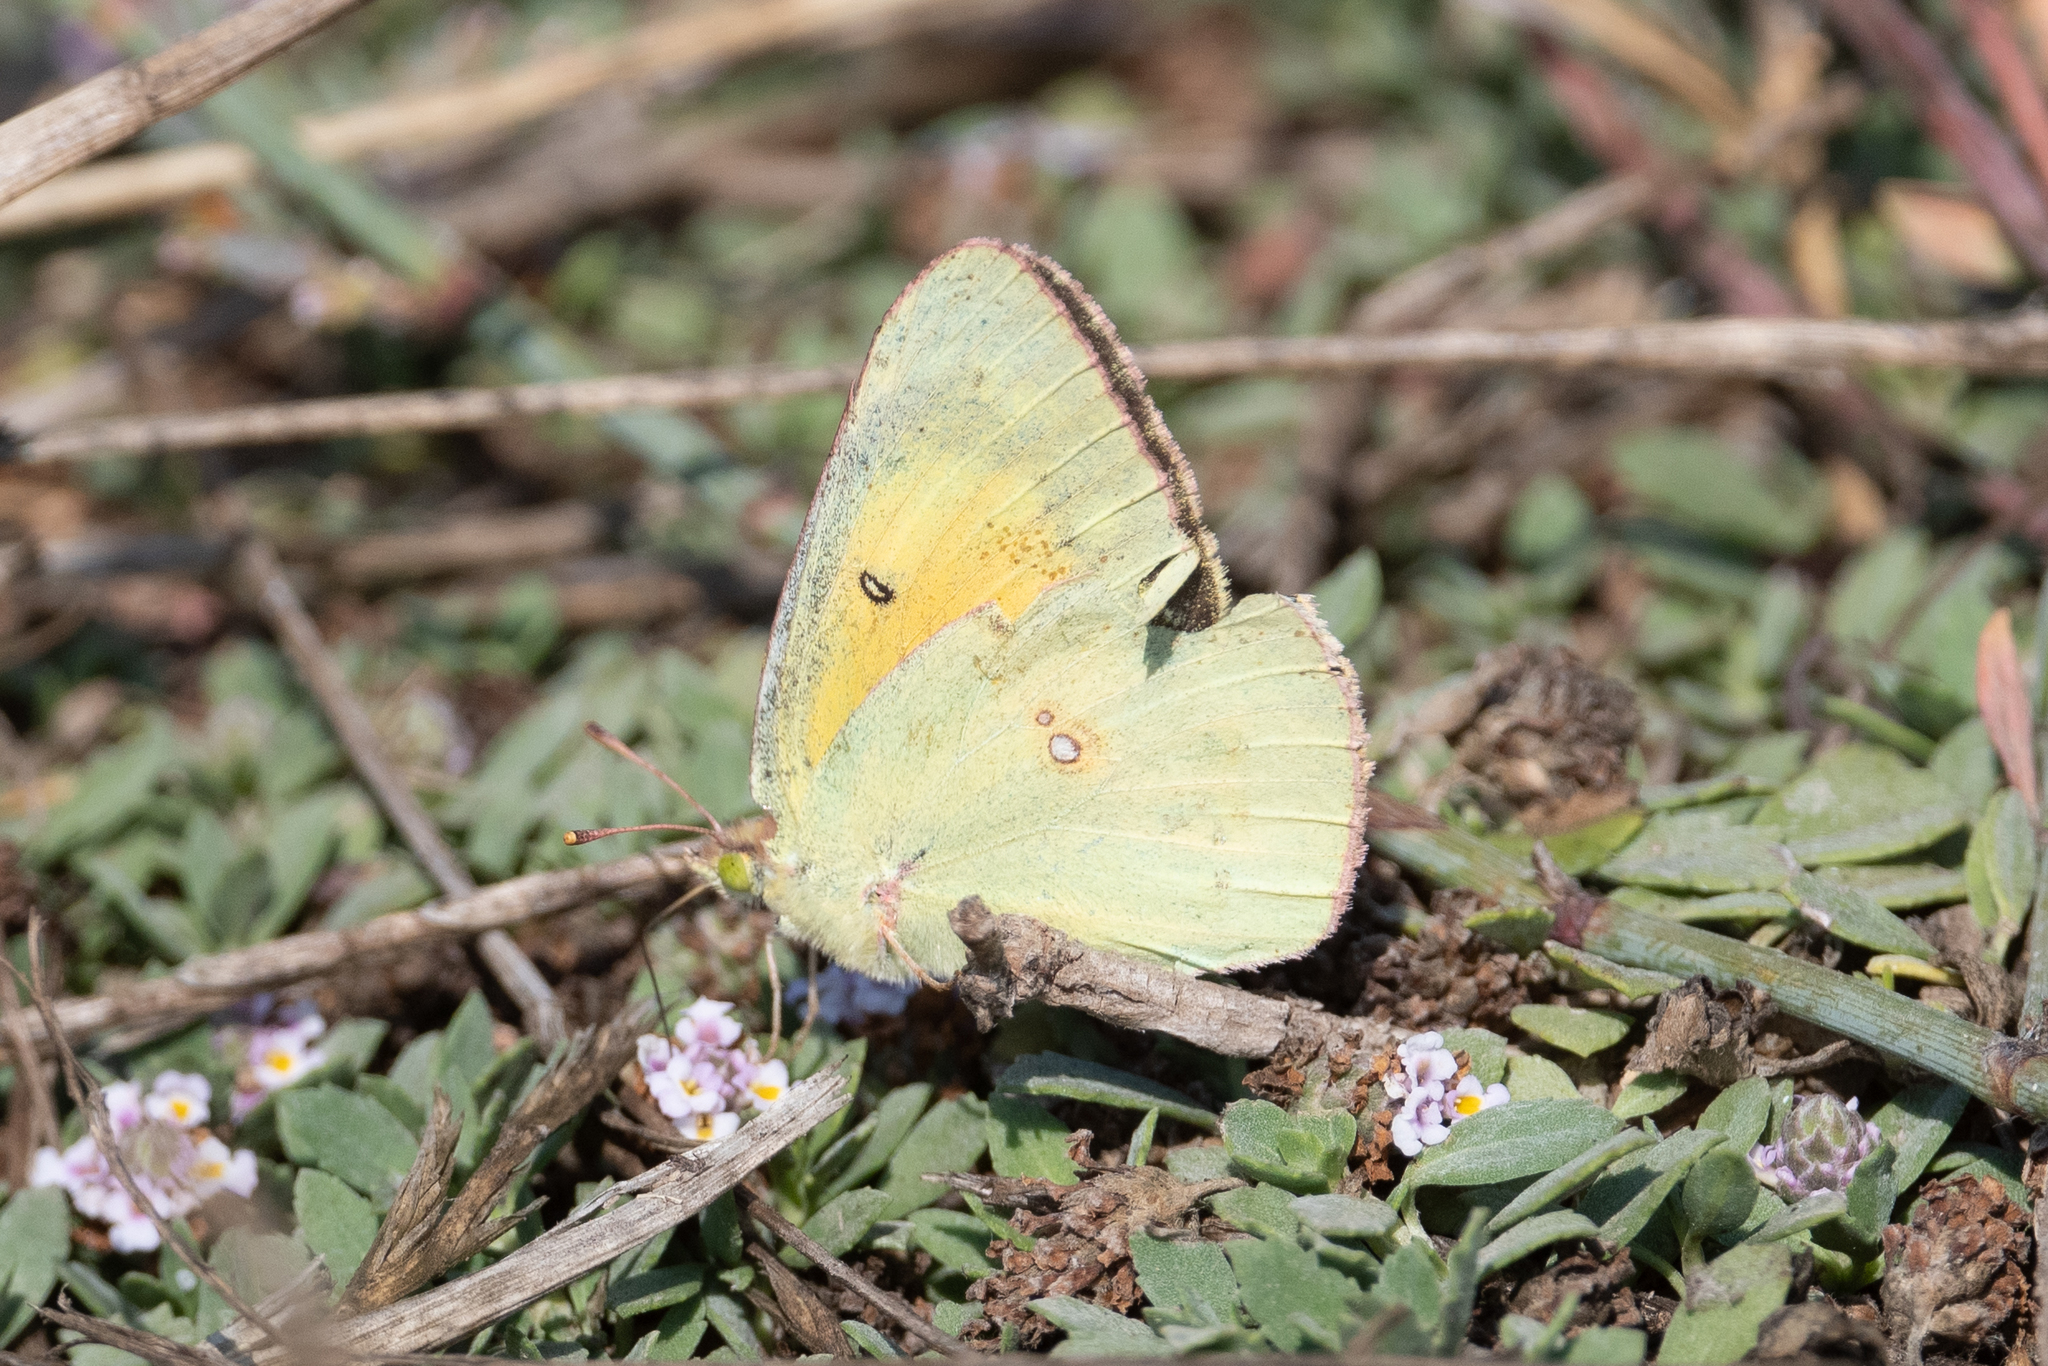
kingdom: Animalia
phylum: Arthropoda
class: Insecta
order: Lepidoptera
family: Pieridae
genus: Colias
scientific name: Colias eurytheme
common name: Alfalfa butterfly
